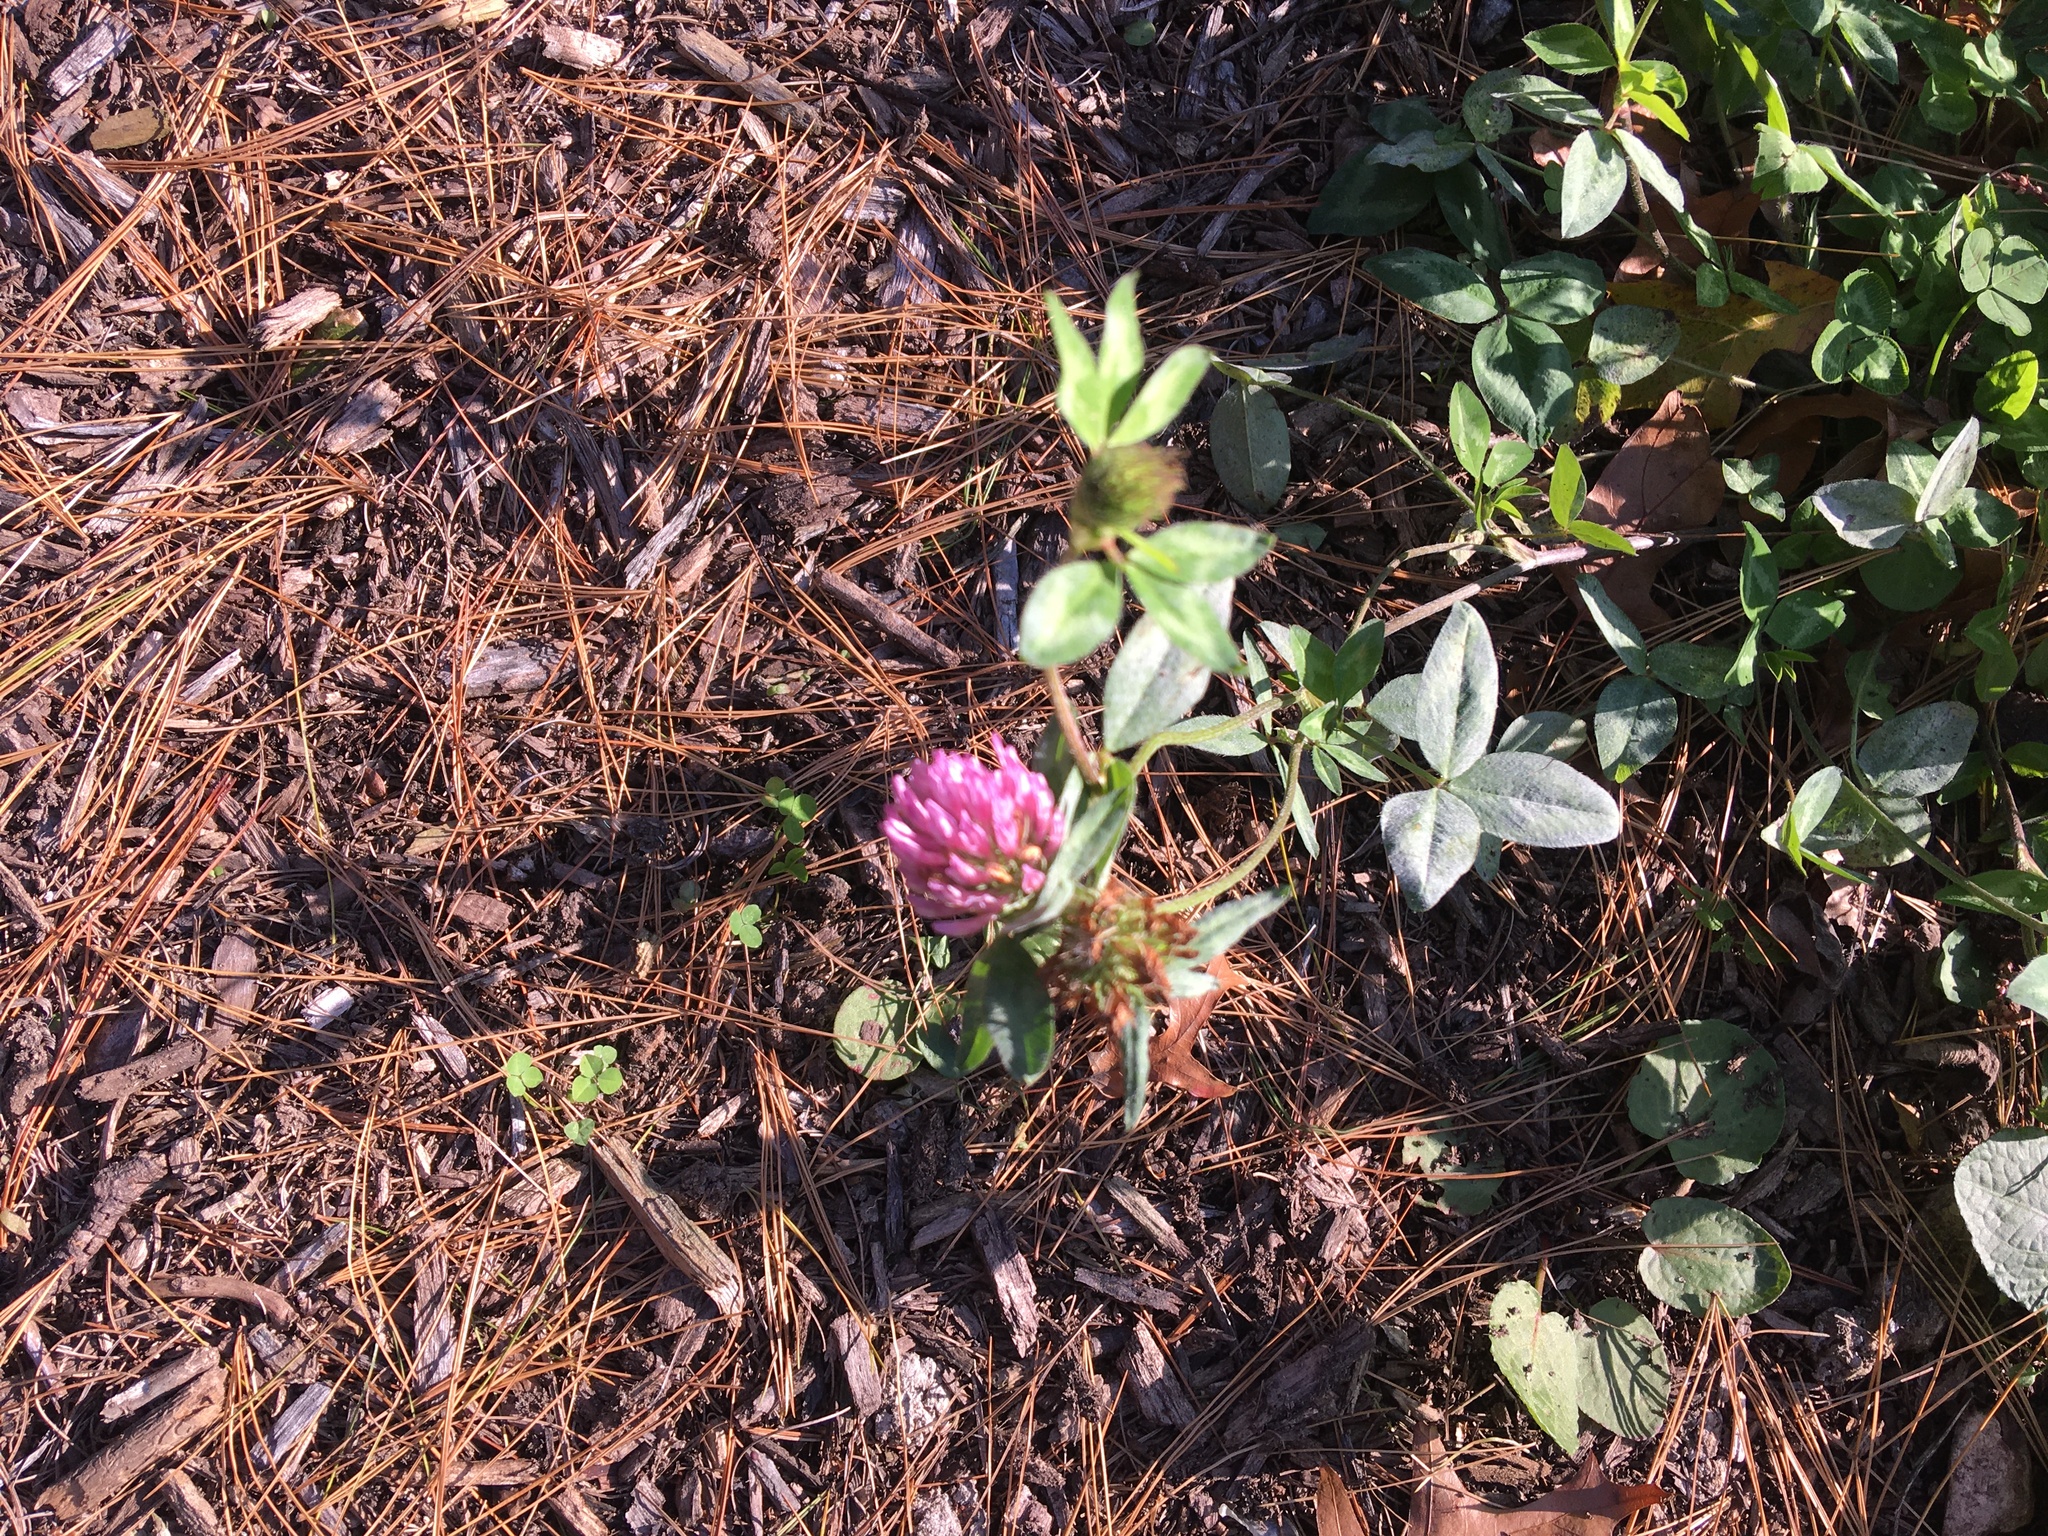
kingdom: Plantae
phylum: Tracheophyta
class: Magnoliopsida
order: Fabales
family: Fabaceae
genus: Trifolium
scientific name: Trifolium pratense
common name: Red clover
